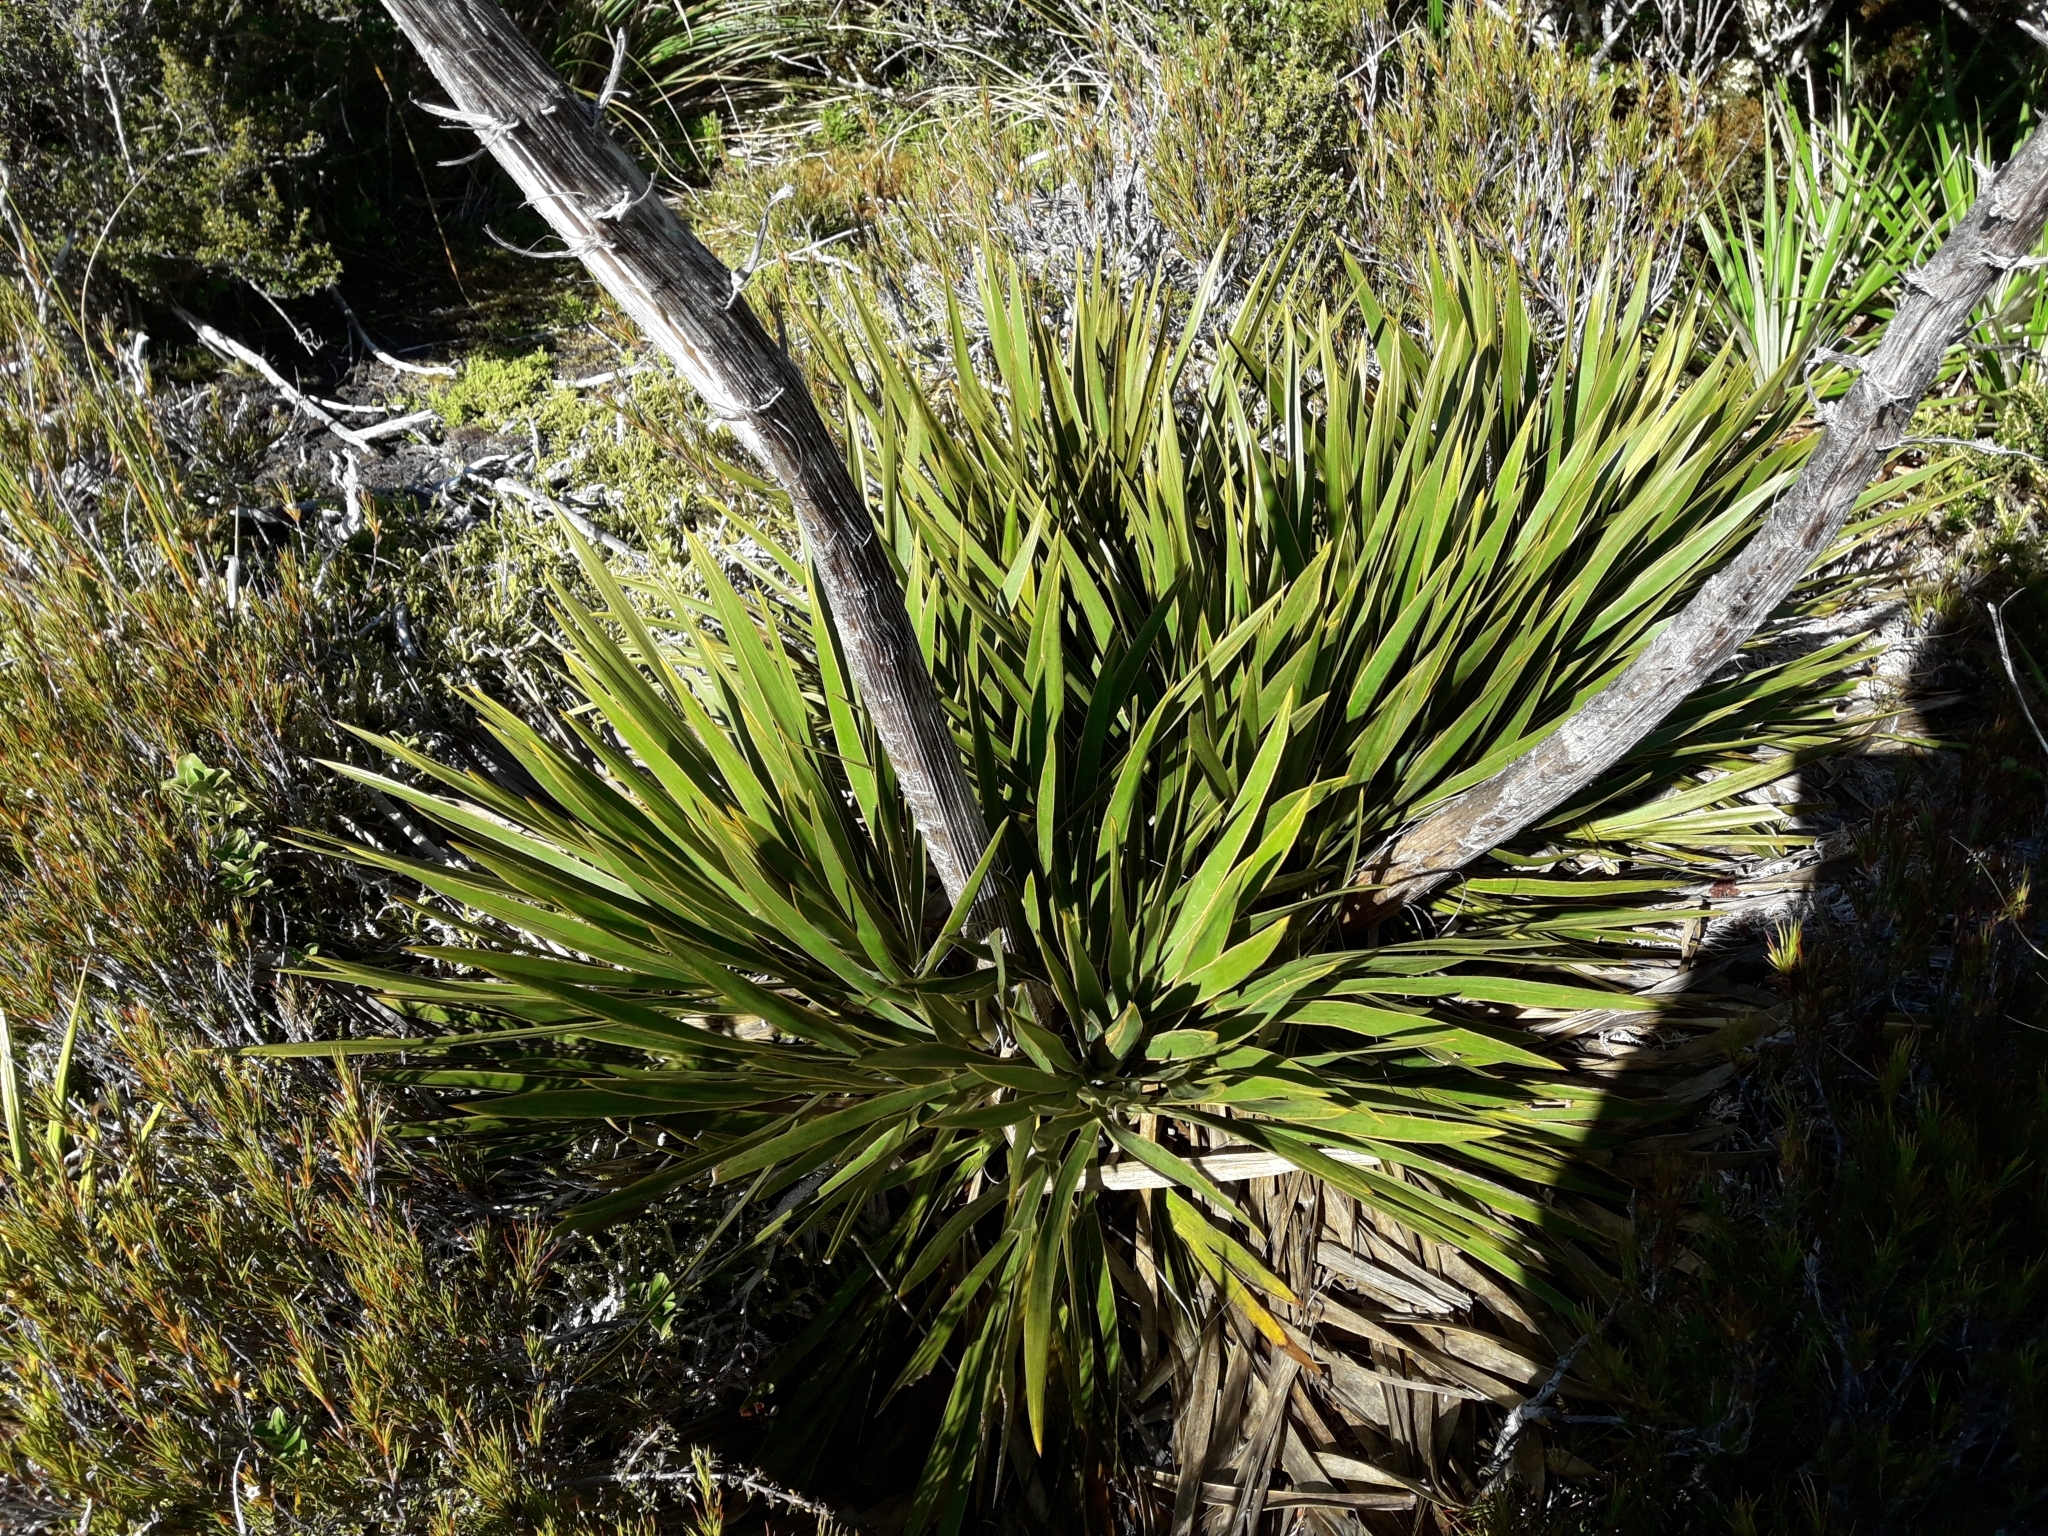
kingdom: Plantae
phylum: Tracheophyta
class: Magnoliopsida
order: Apiales
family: Apiaceae
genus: Aciphylla
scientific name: Aciphylla horrida
